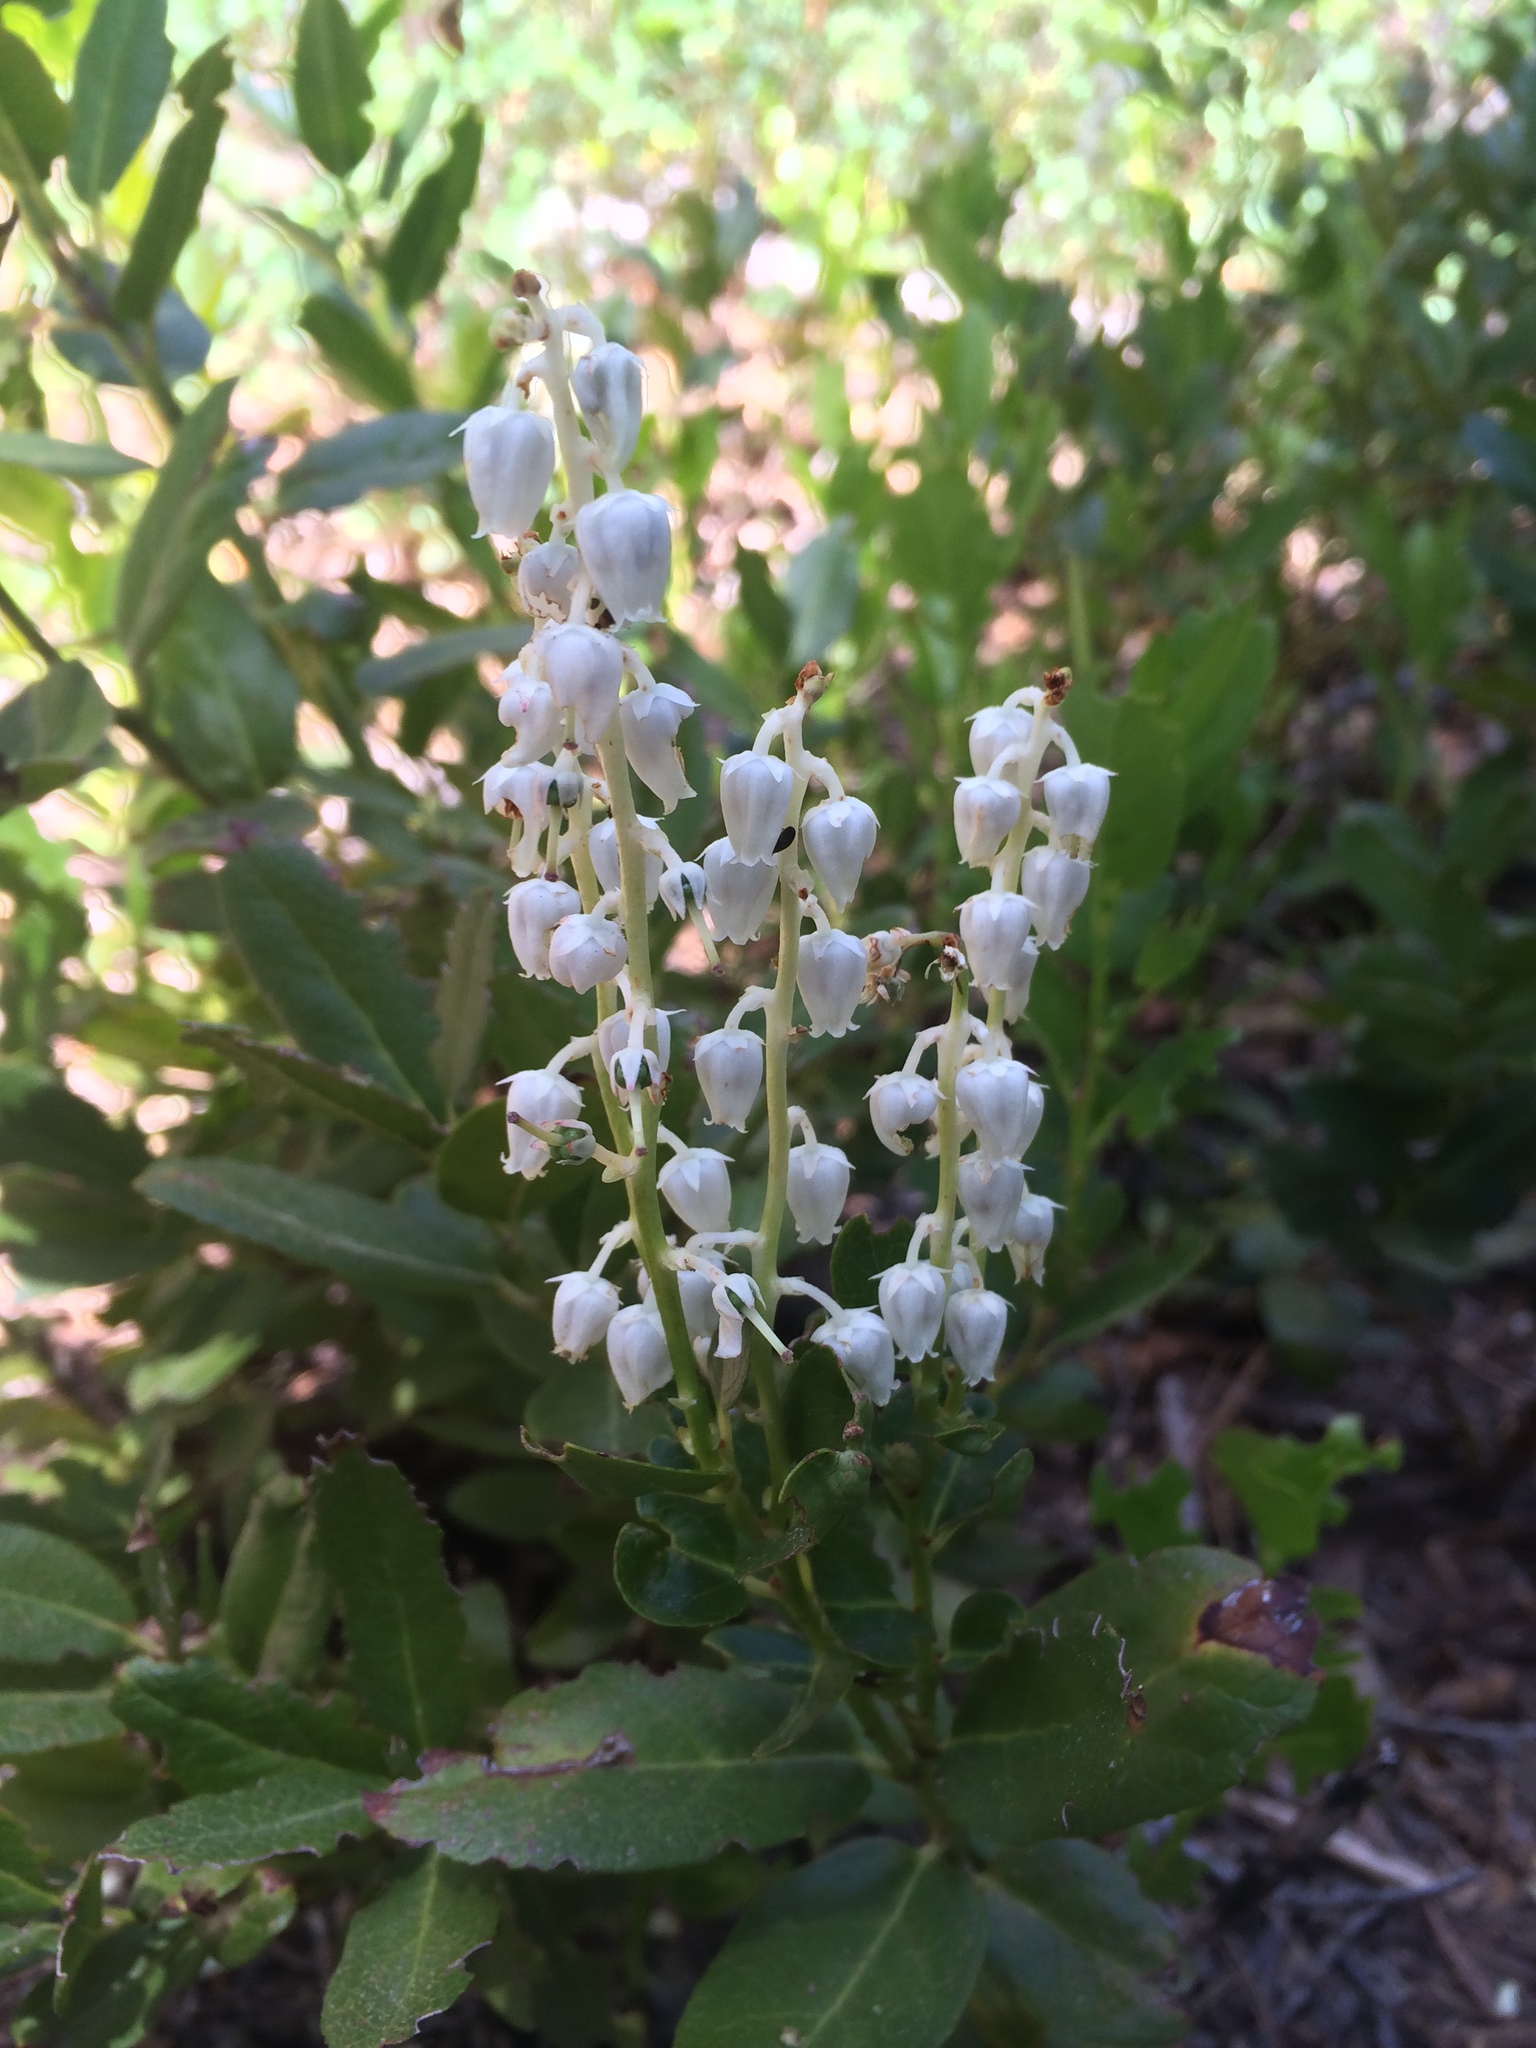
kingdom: Plantae
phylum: Tracheophyta
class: Magnoliopsida
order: Ericales
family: Ericaceae
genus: Leucothoe
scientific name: Leucothoe davisiae
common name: Sierra-laurel
